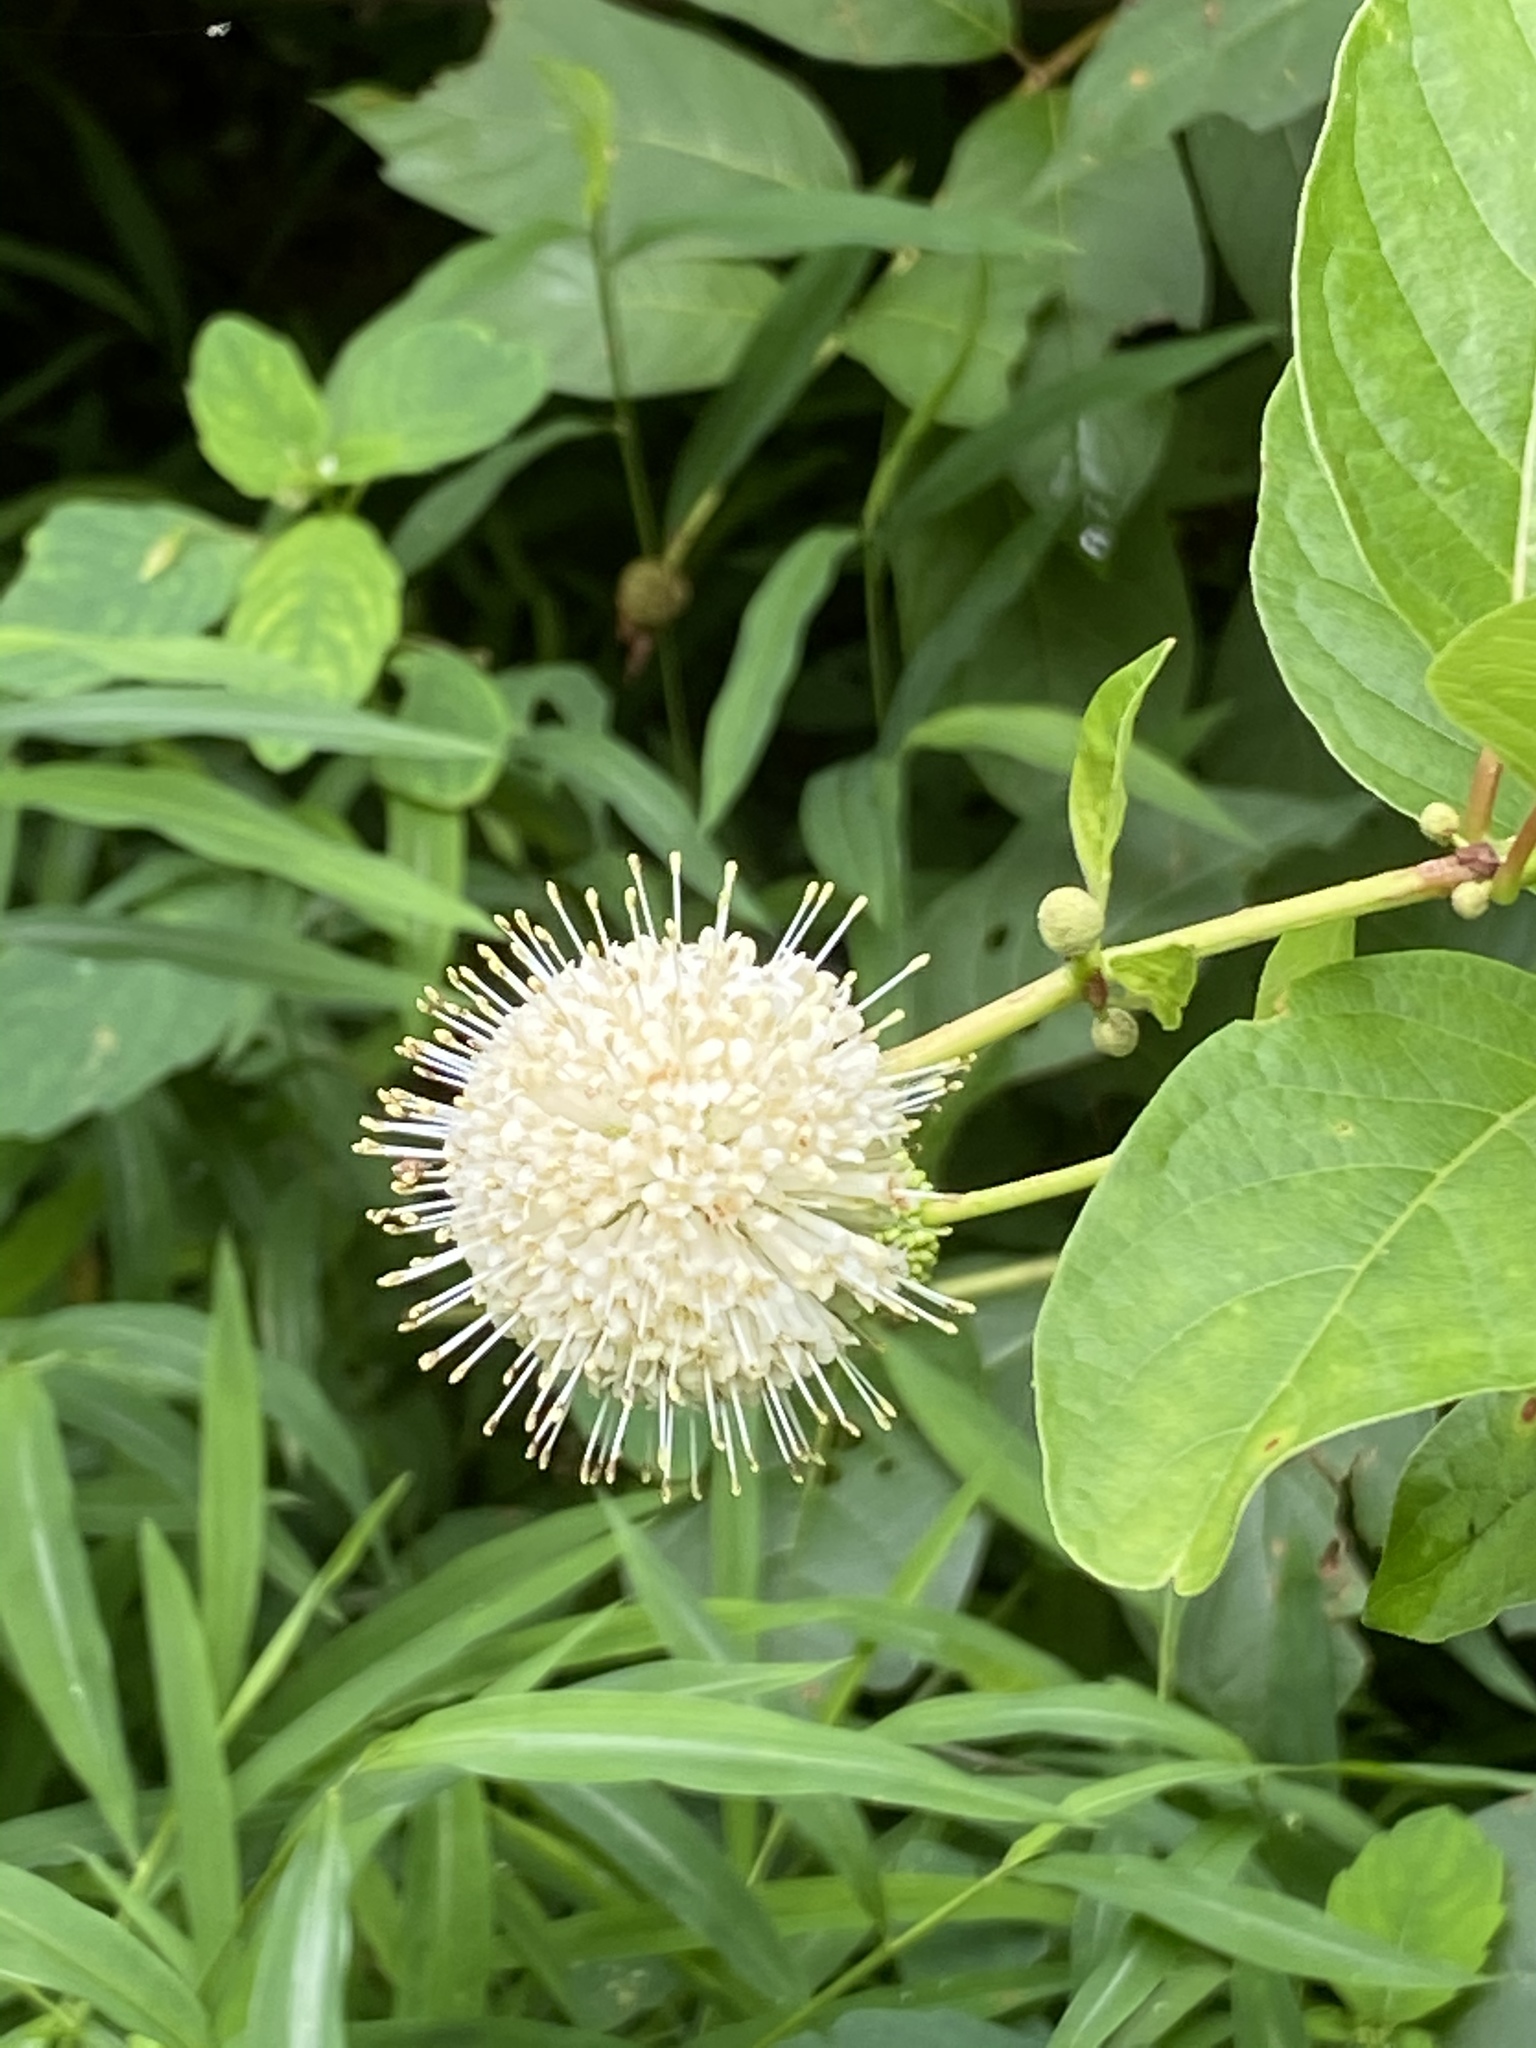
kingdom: Plantae
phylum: Tracheophyta
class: Magnoliopsida
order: Gentianales
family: Rubiaceae
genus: Cephalanthus
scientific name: Cephalanthus occidentalis
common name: Button-willow
